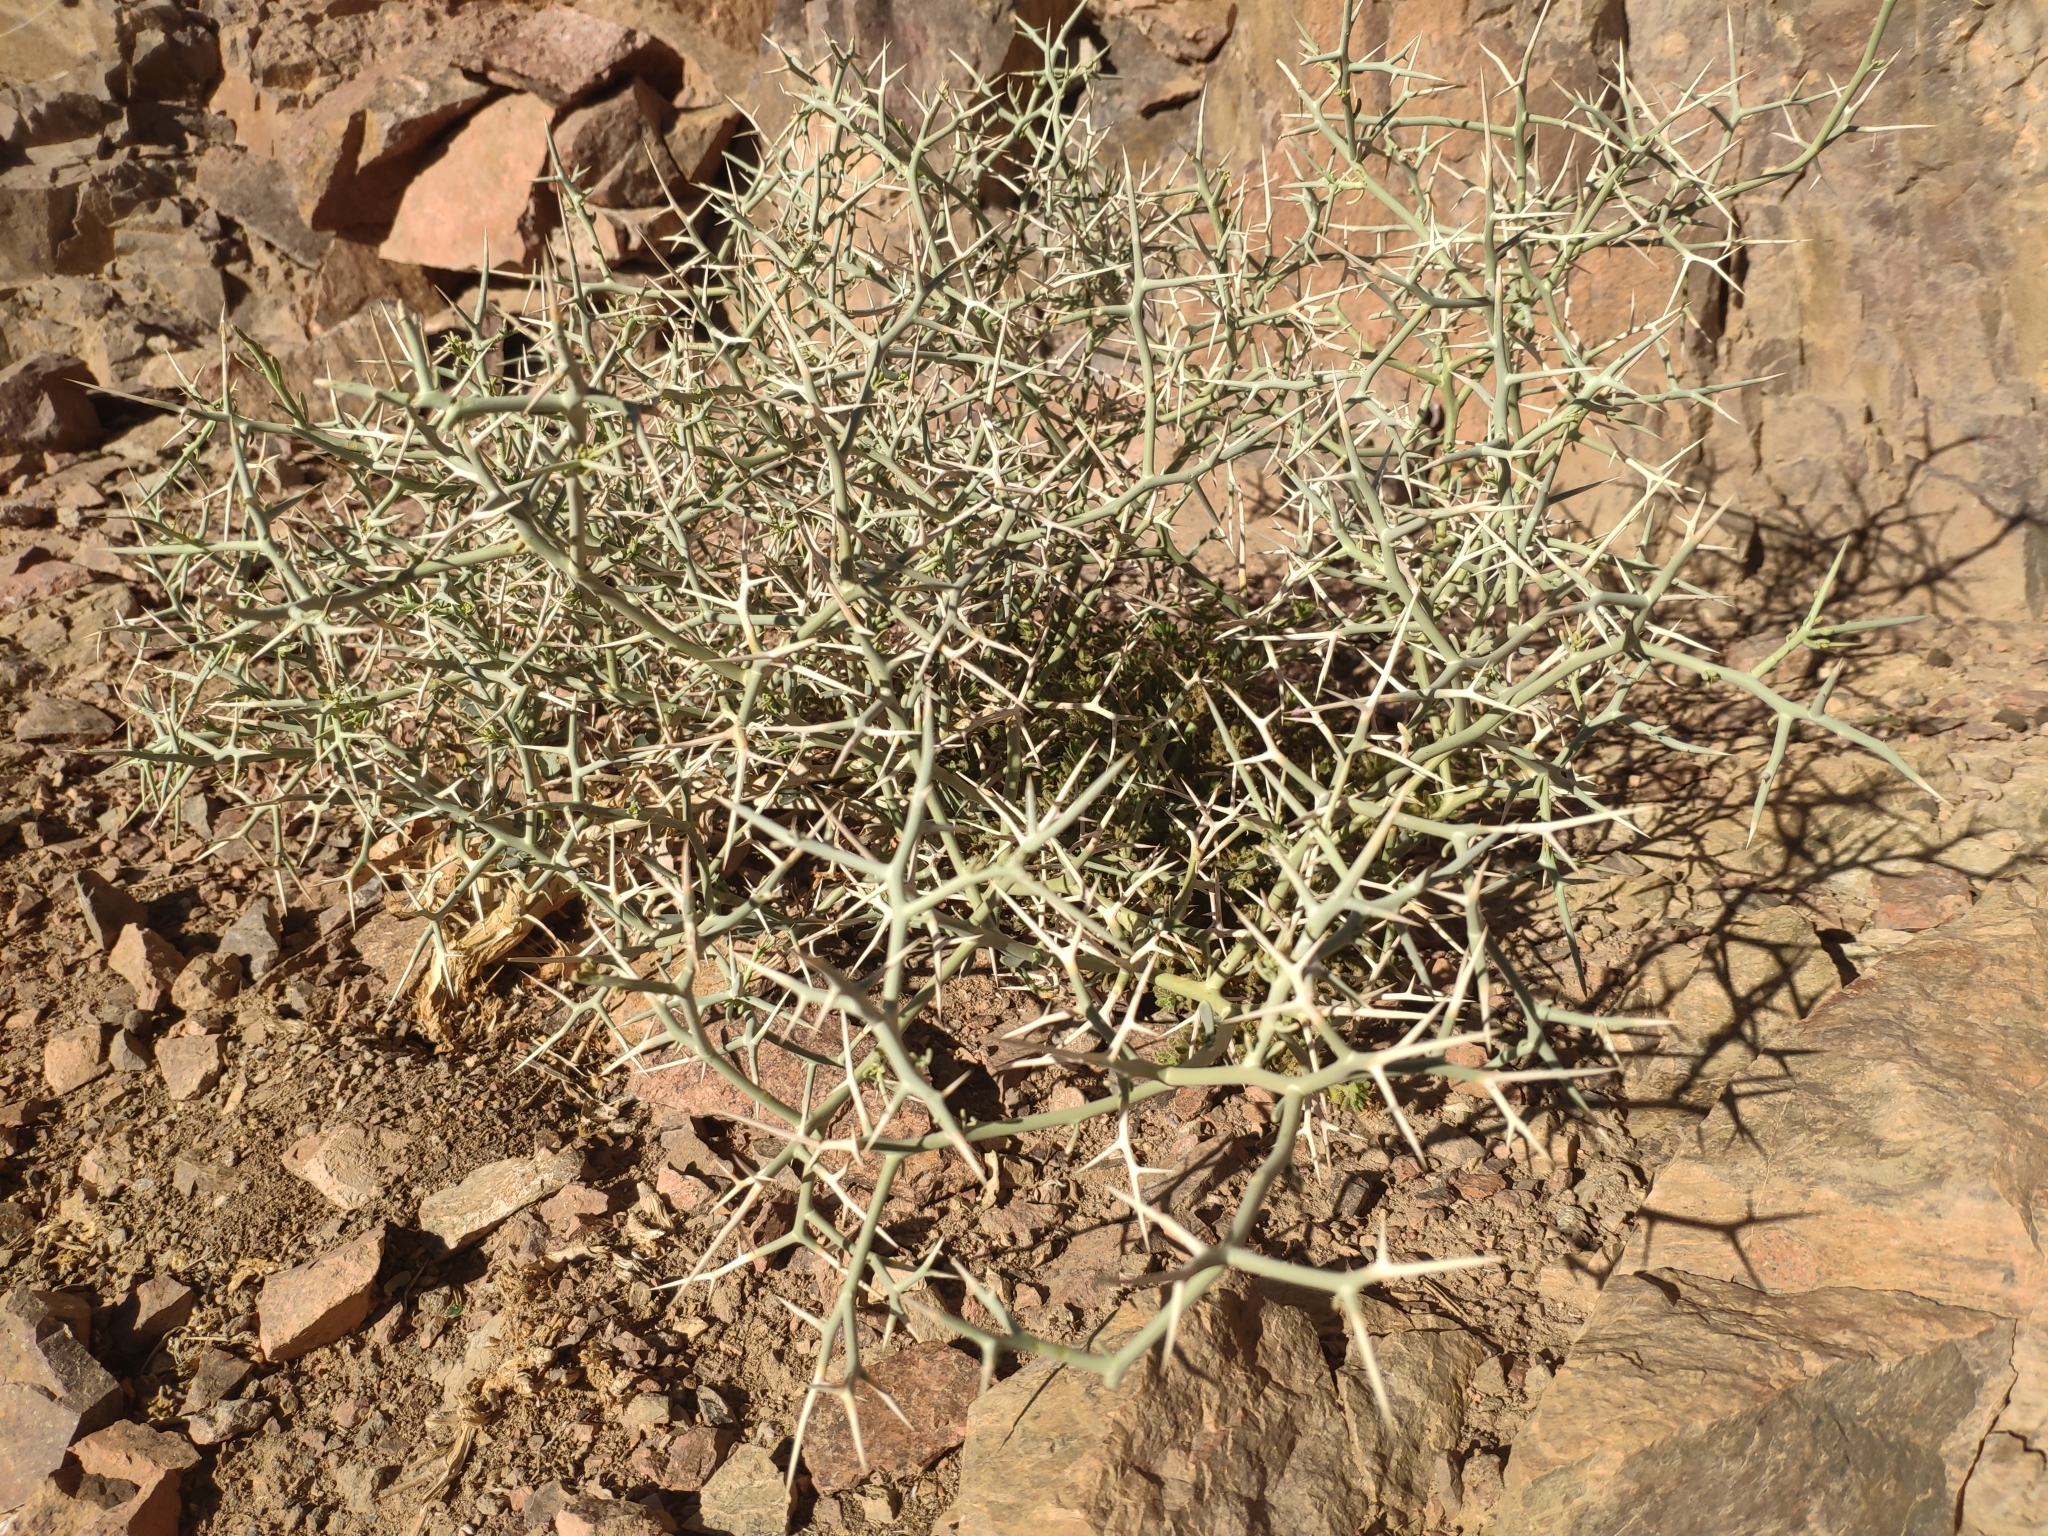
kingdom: Plantae
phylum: Tracheophyta
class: Magnoliopsida
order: Brassicales
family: Brassicaceae
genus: Zilla
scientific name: Zilla spinosa
